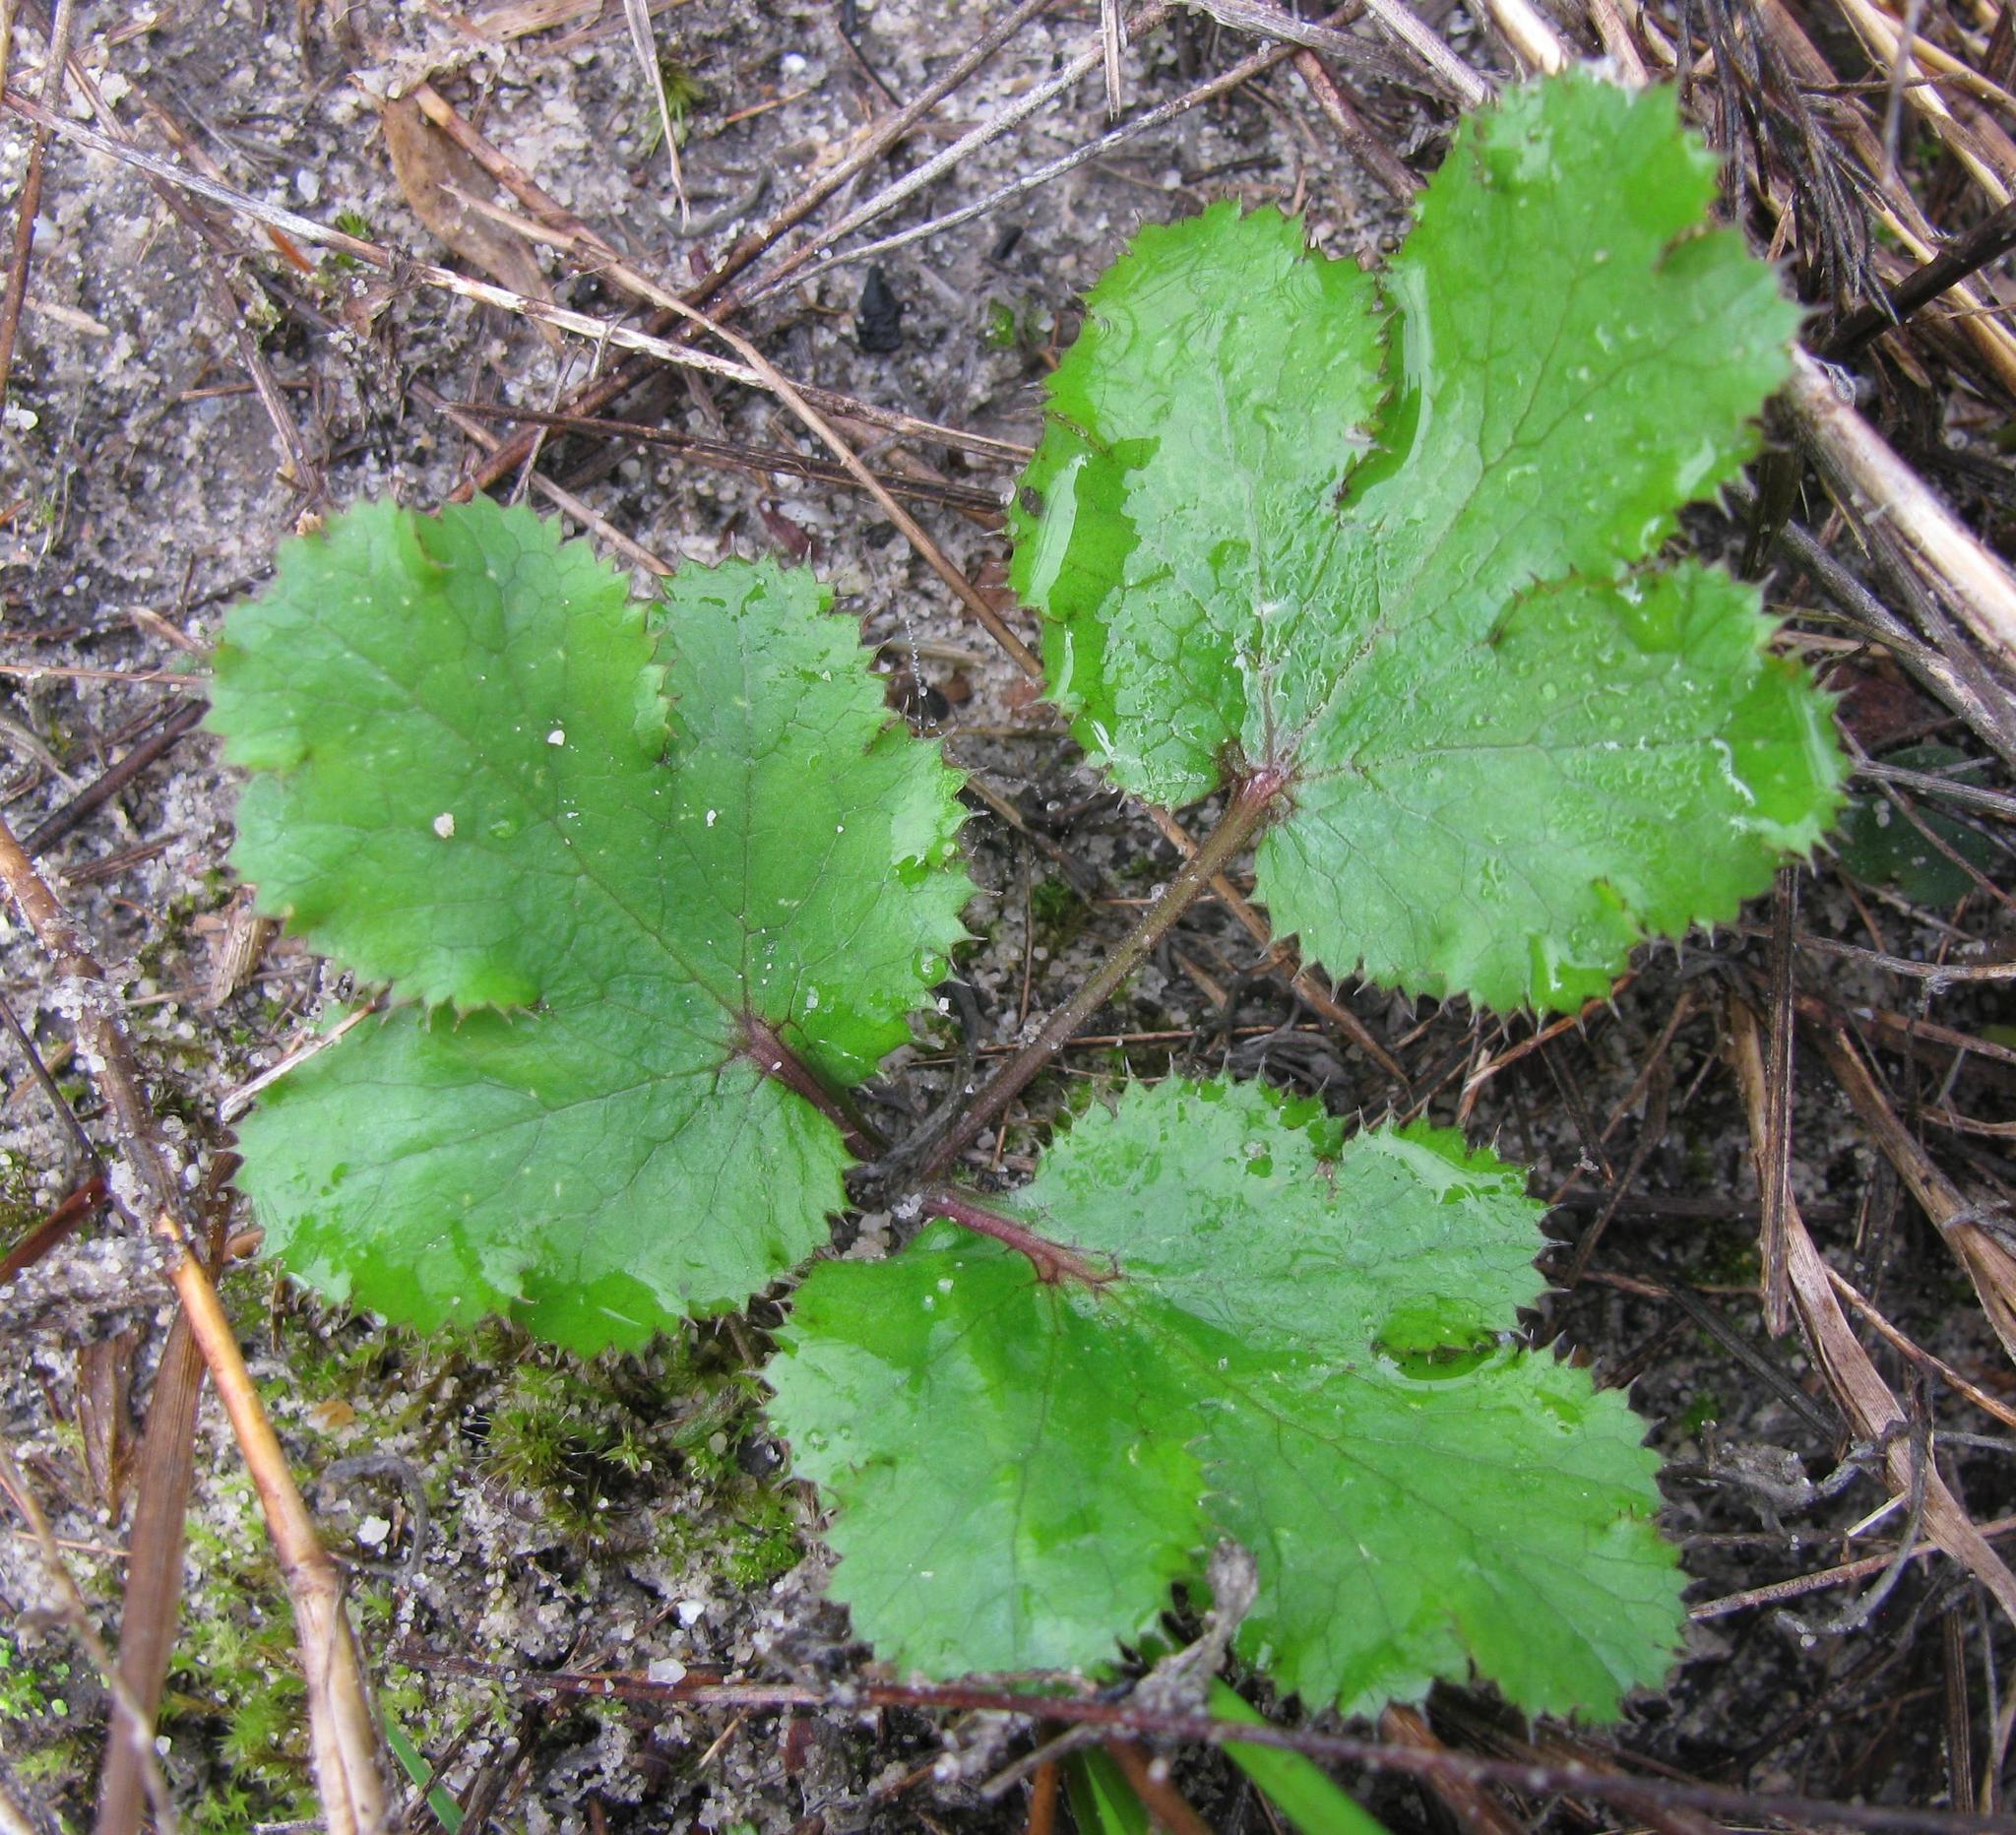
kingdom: Plantae
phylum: Tracheophyta
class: Magnoliopsida
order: Apiales
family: Apiaceae
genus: Chamarea
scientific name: Chamarea gracillima
